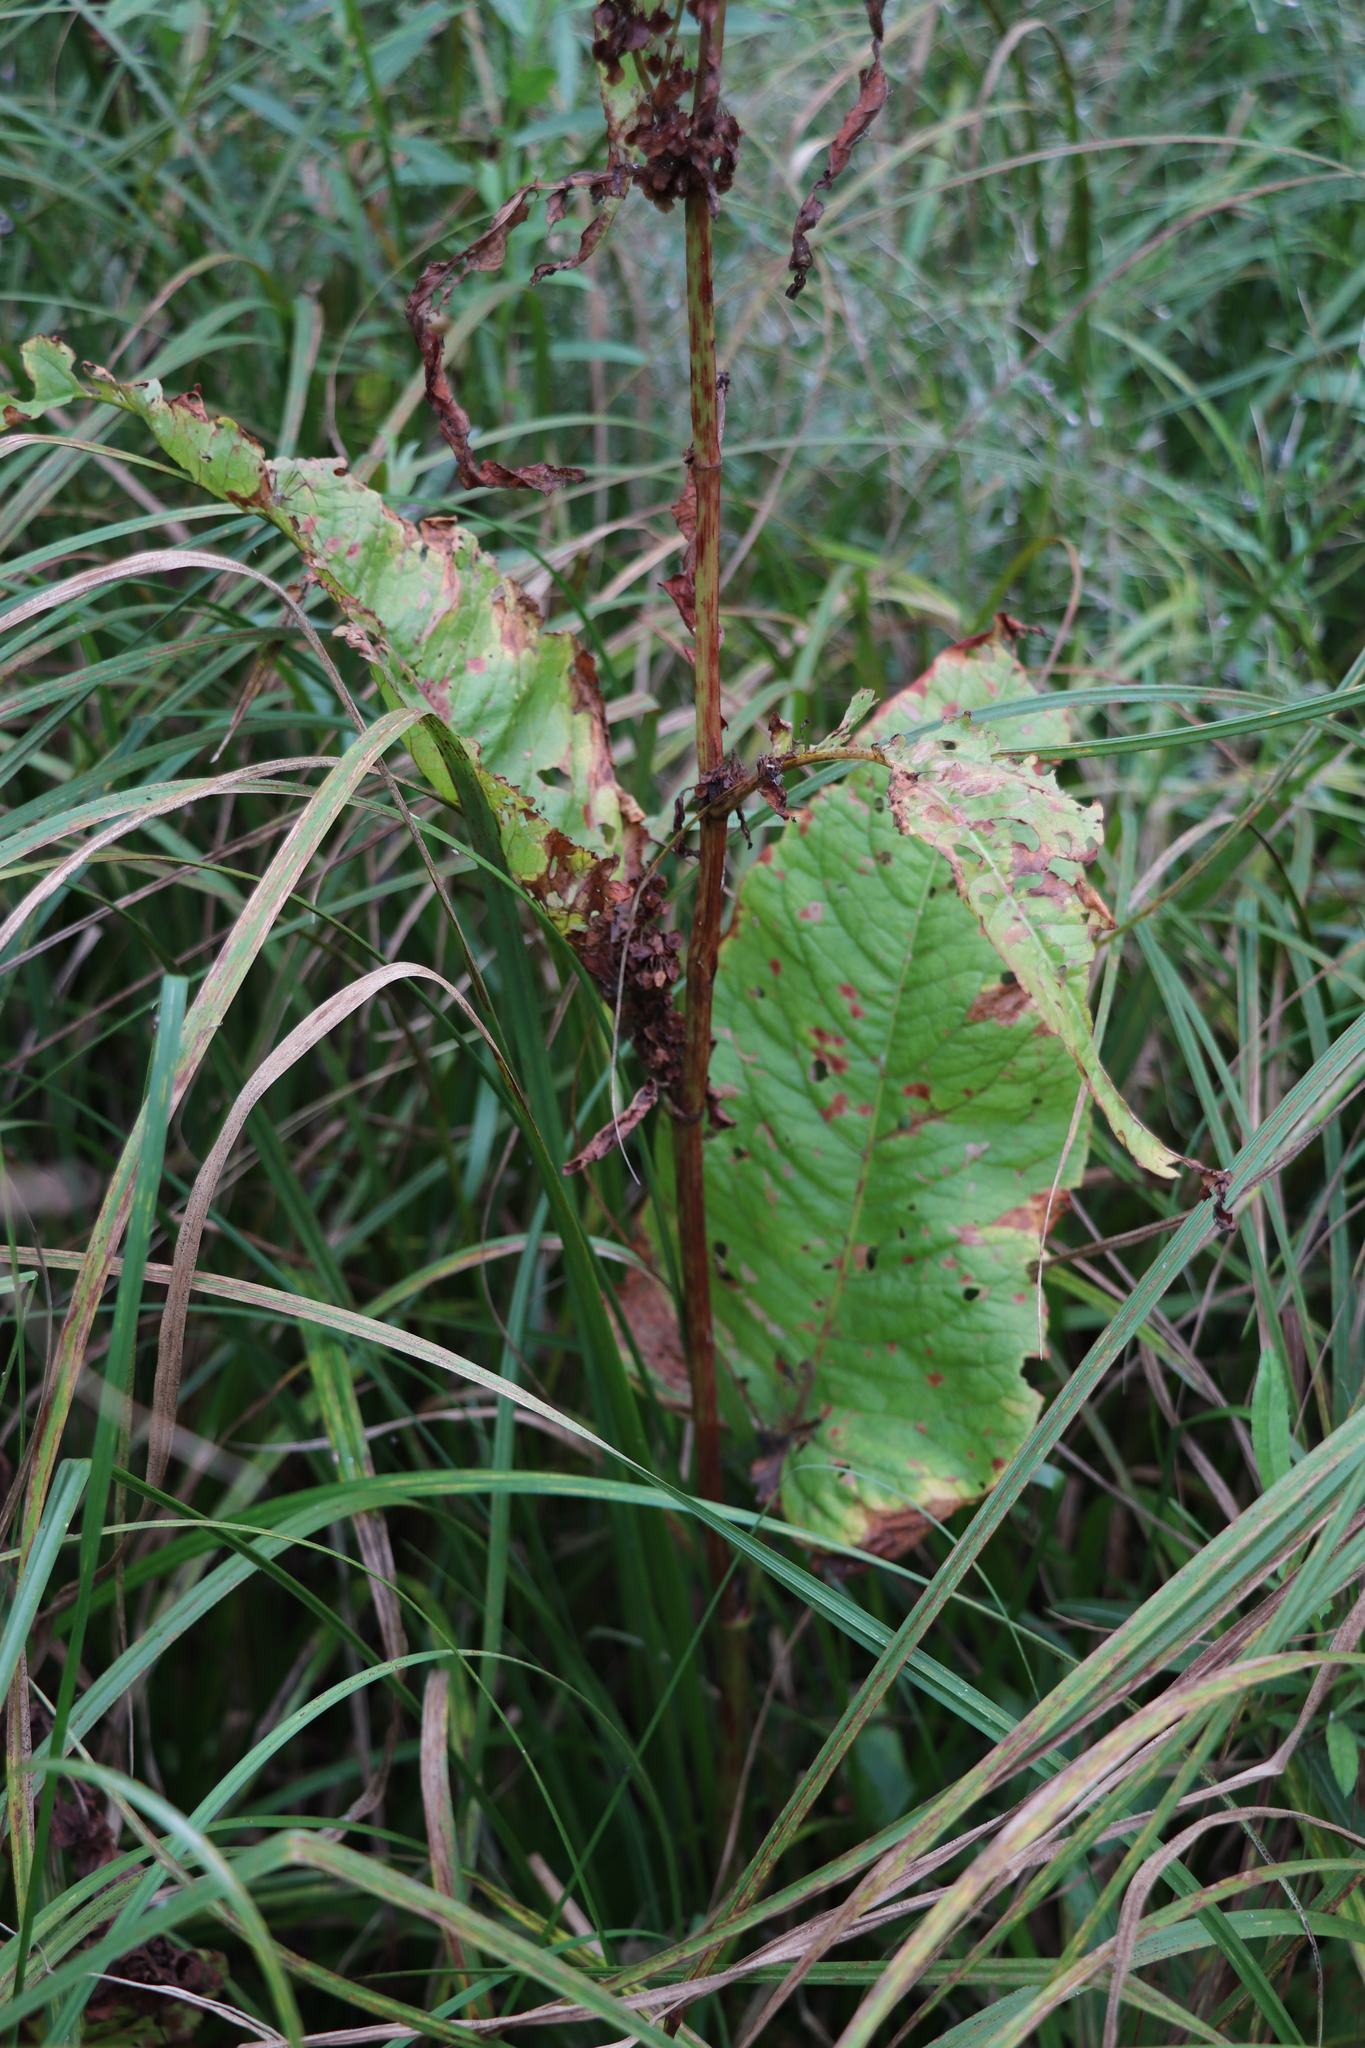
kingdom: Plantae
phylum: Tracheophyta
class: Magnoliopsida
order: Caryophyllales
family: Polygonaceae
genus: Rumex
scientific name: Rumex aquaticus
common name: Scottish dock
